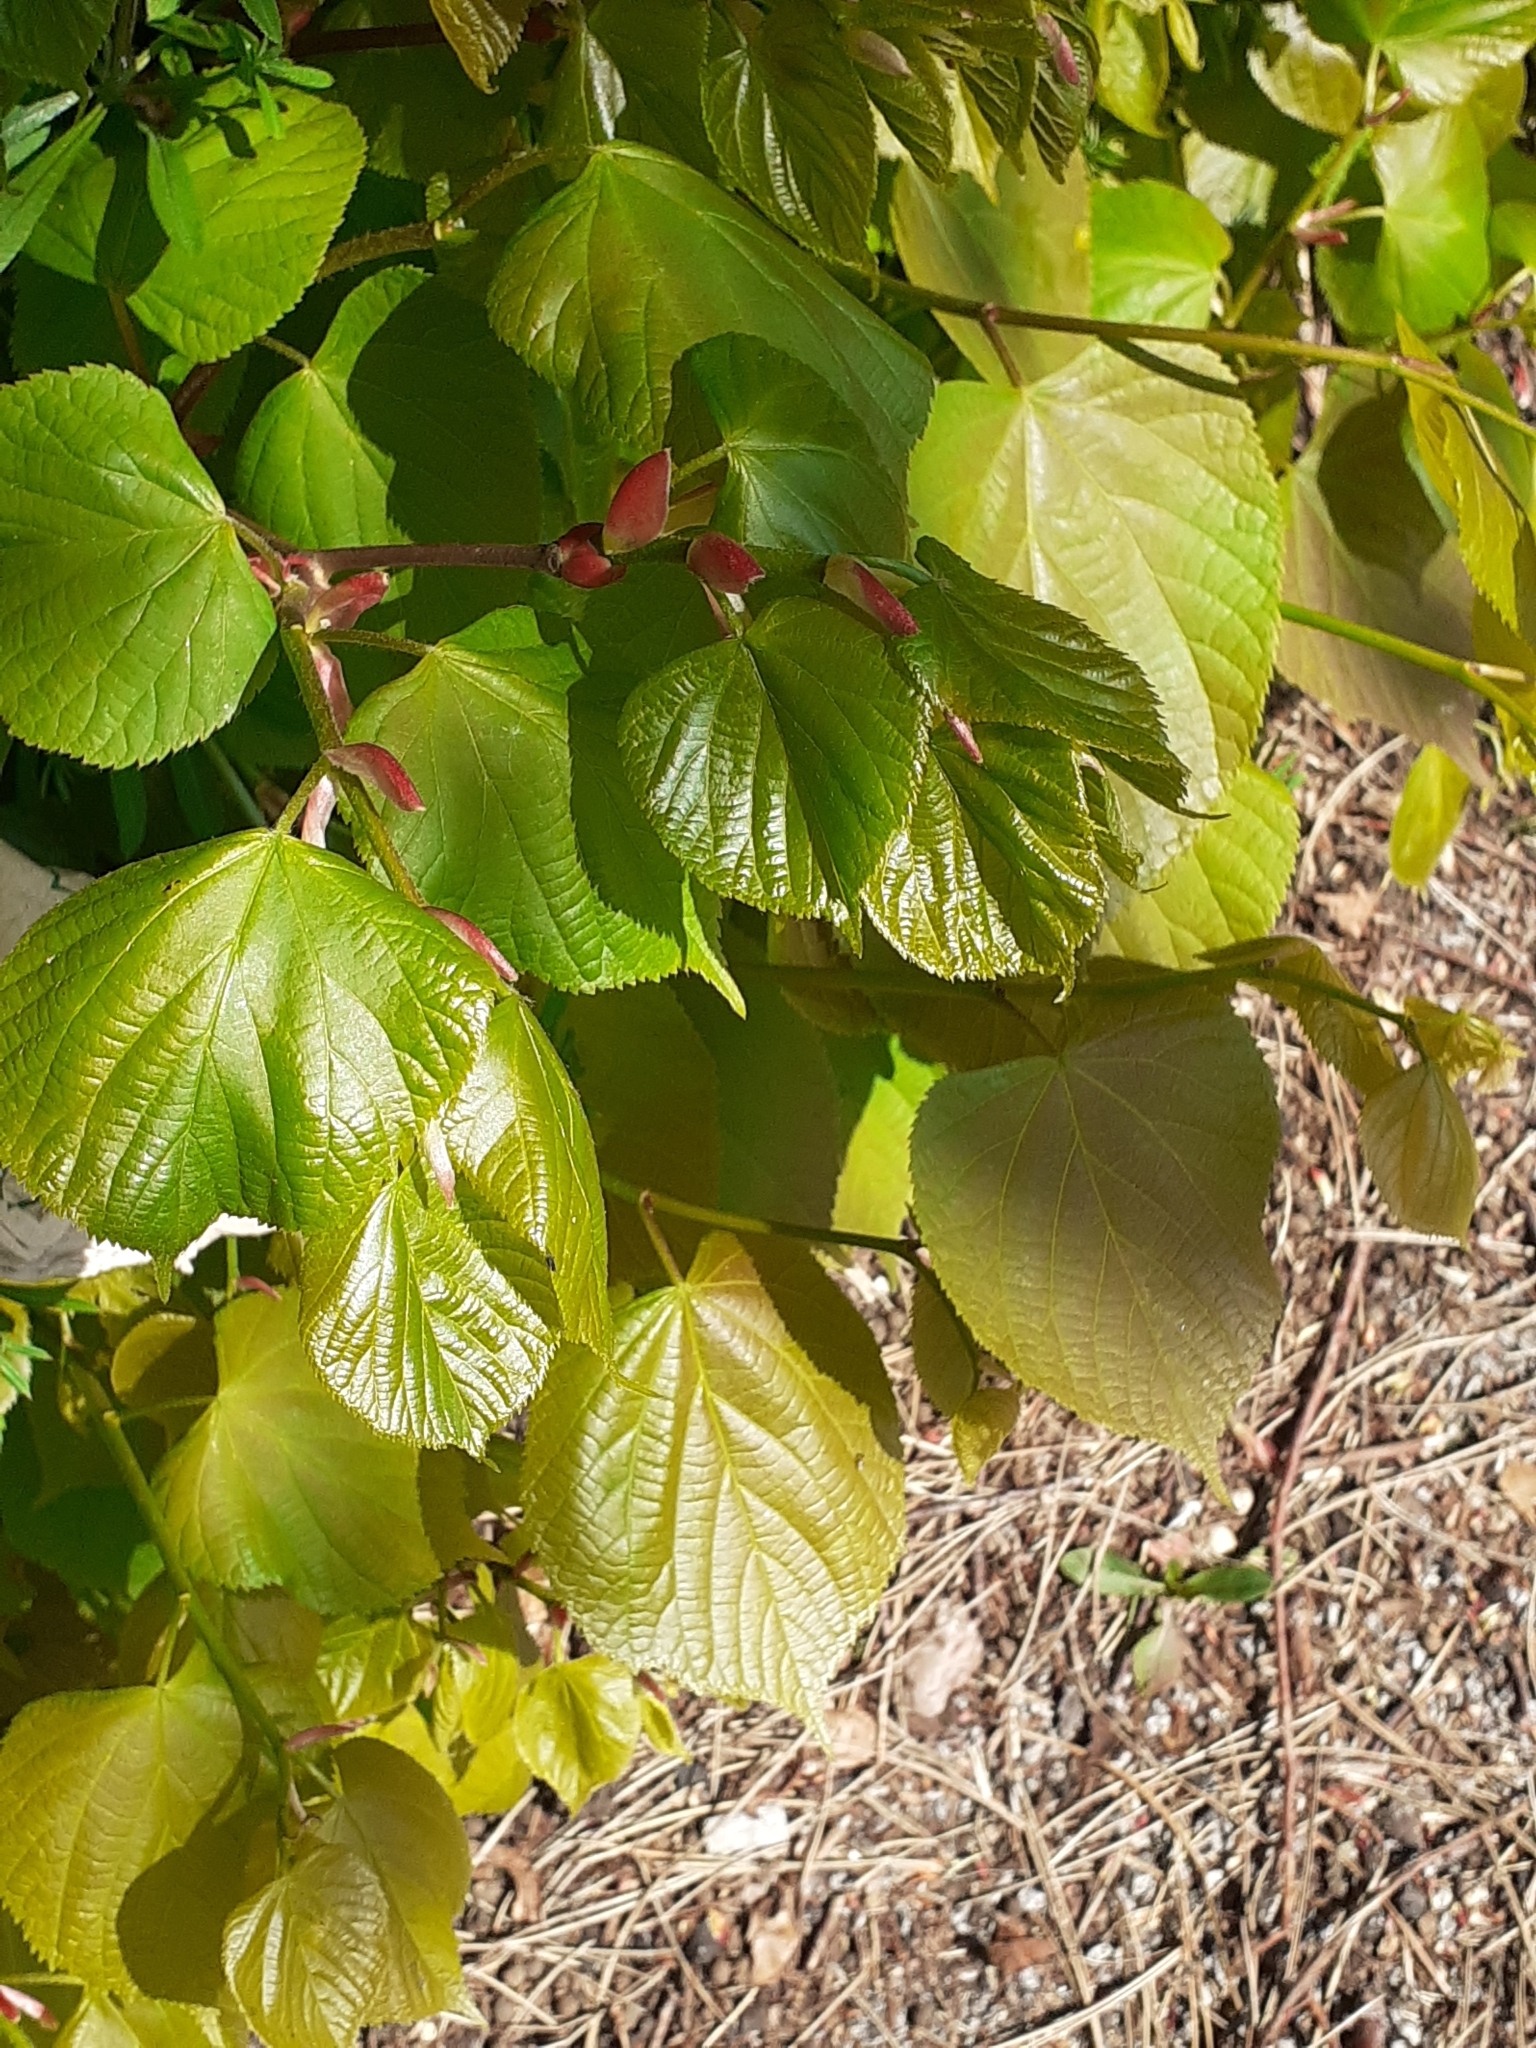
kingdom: Plantae
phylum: Tracheophyta
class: Magnoliopsida
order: Malvales
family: Malvaceae
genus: Tilia
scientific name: Tilia europaea
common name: European linden
